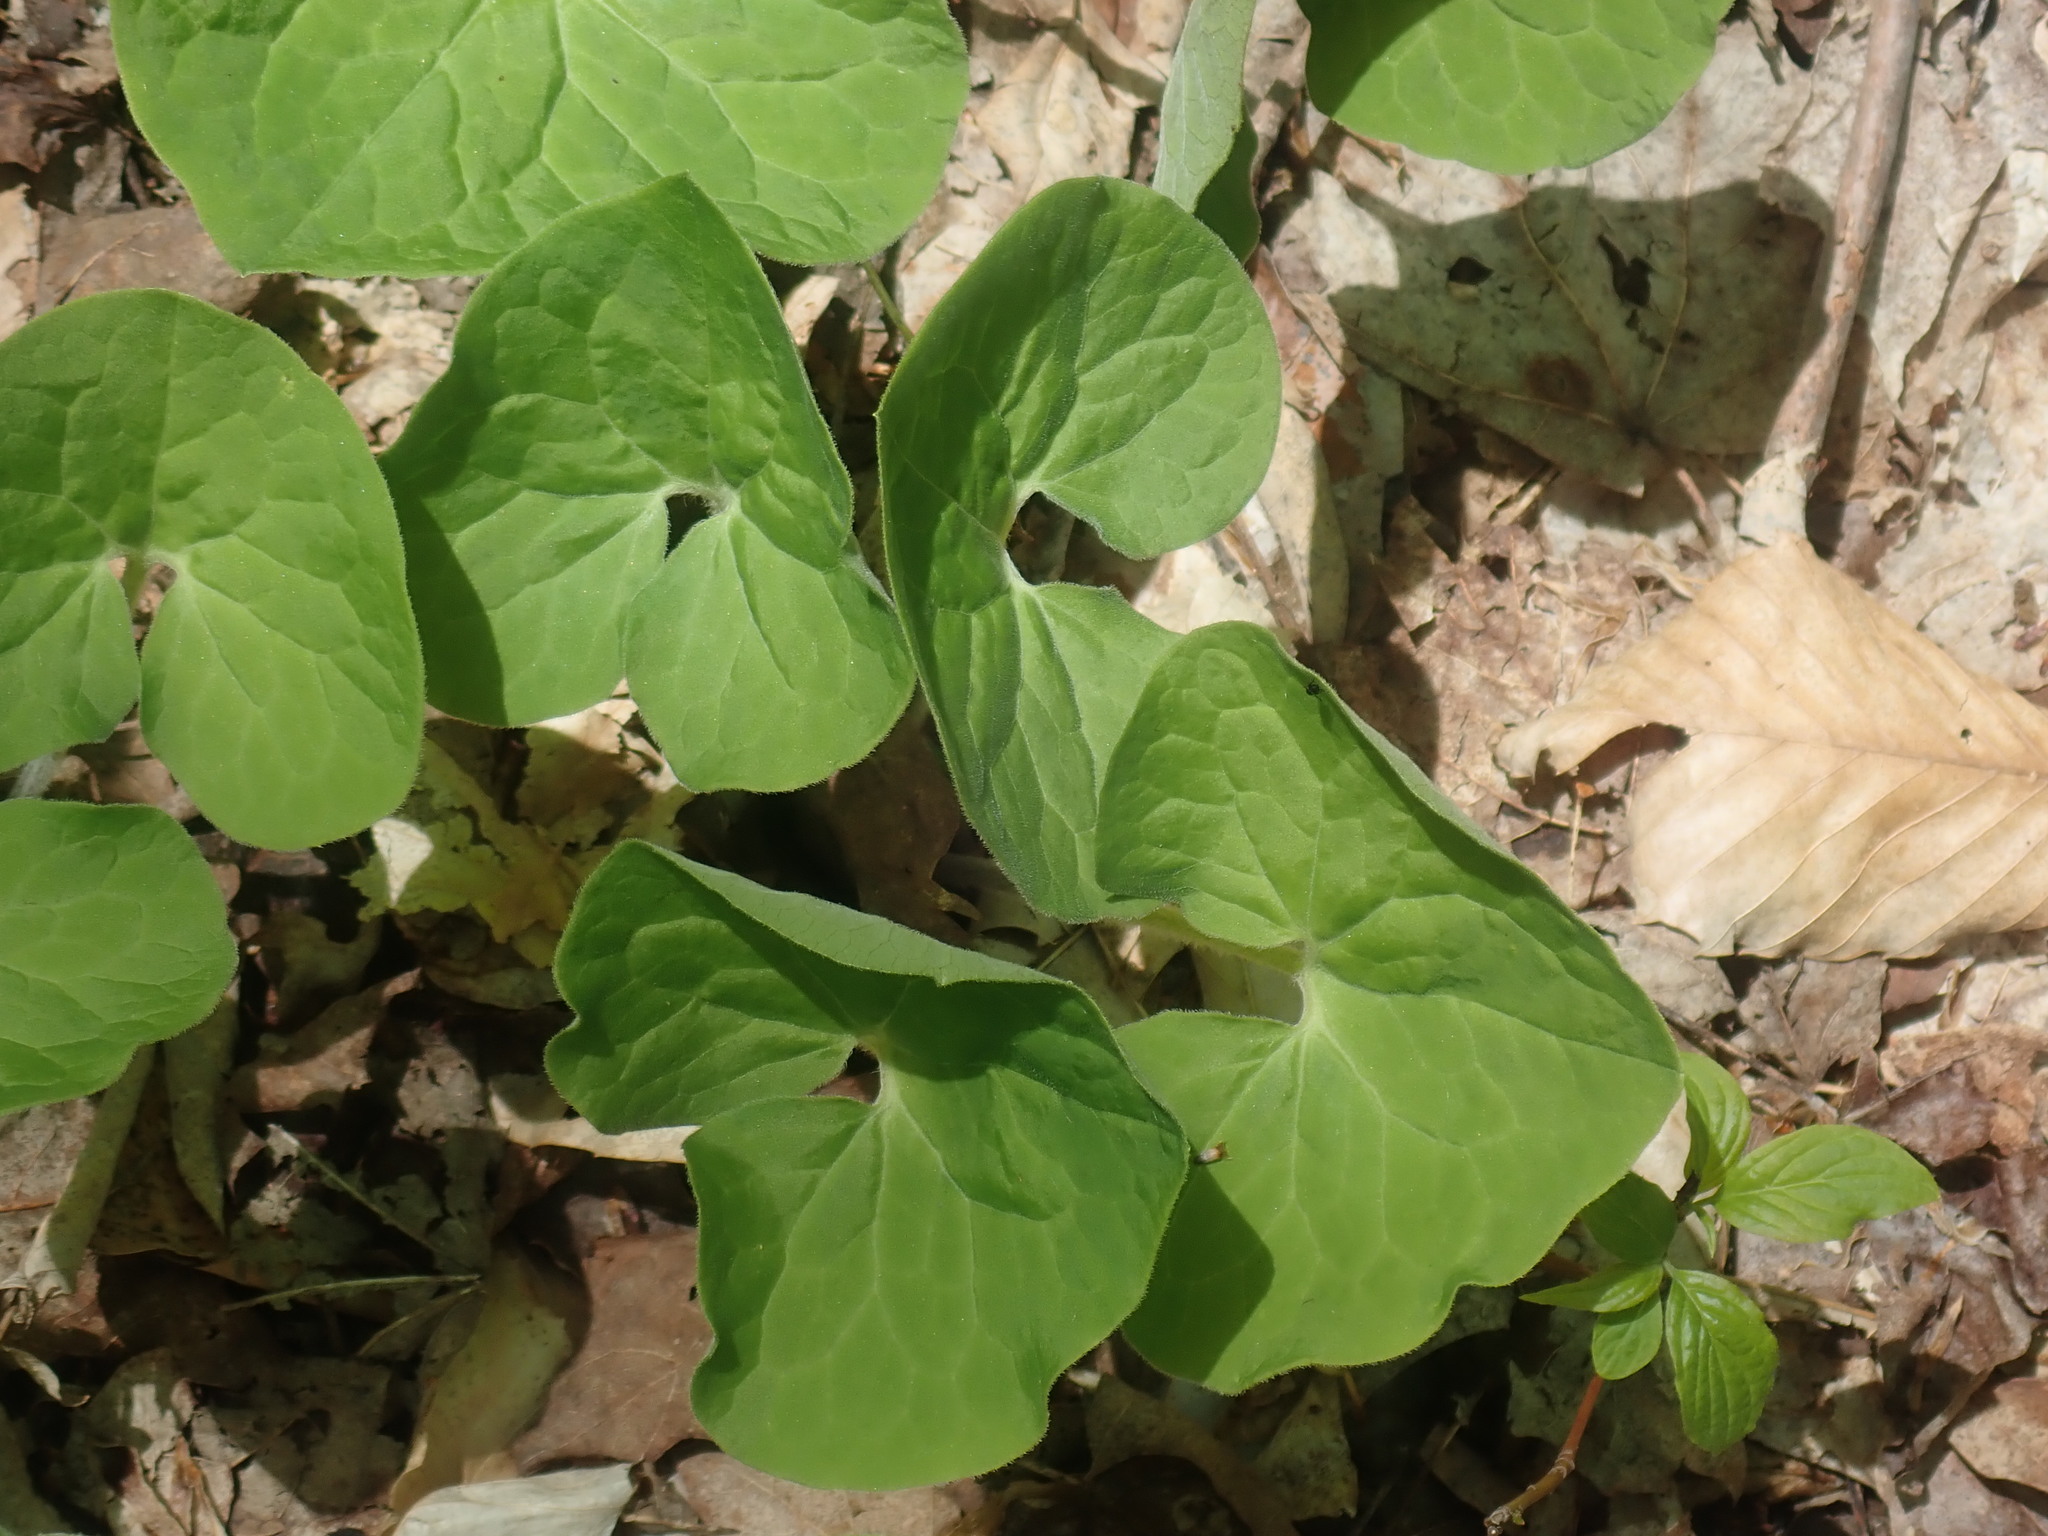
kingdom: Plantae
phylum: Tracheophyta
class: Magnoliopsida
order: Piperales
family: Aristolochiaceae
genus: Asarum
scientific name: Asarum canadense
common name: Wild ginger
